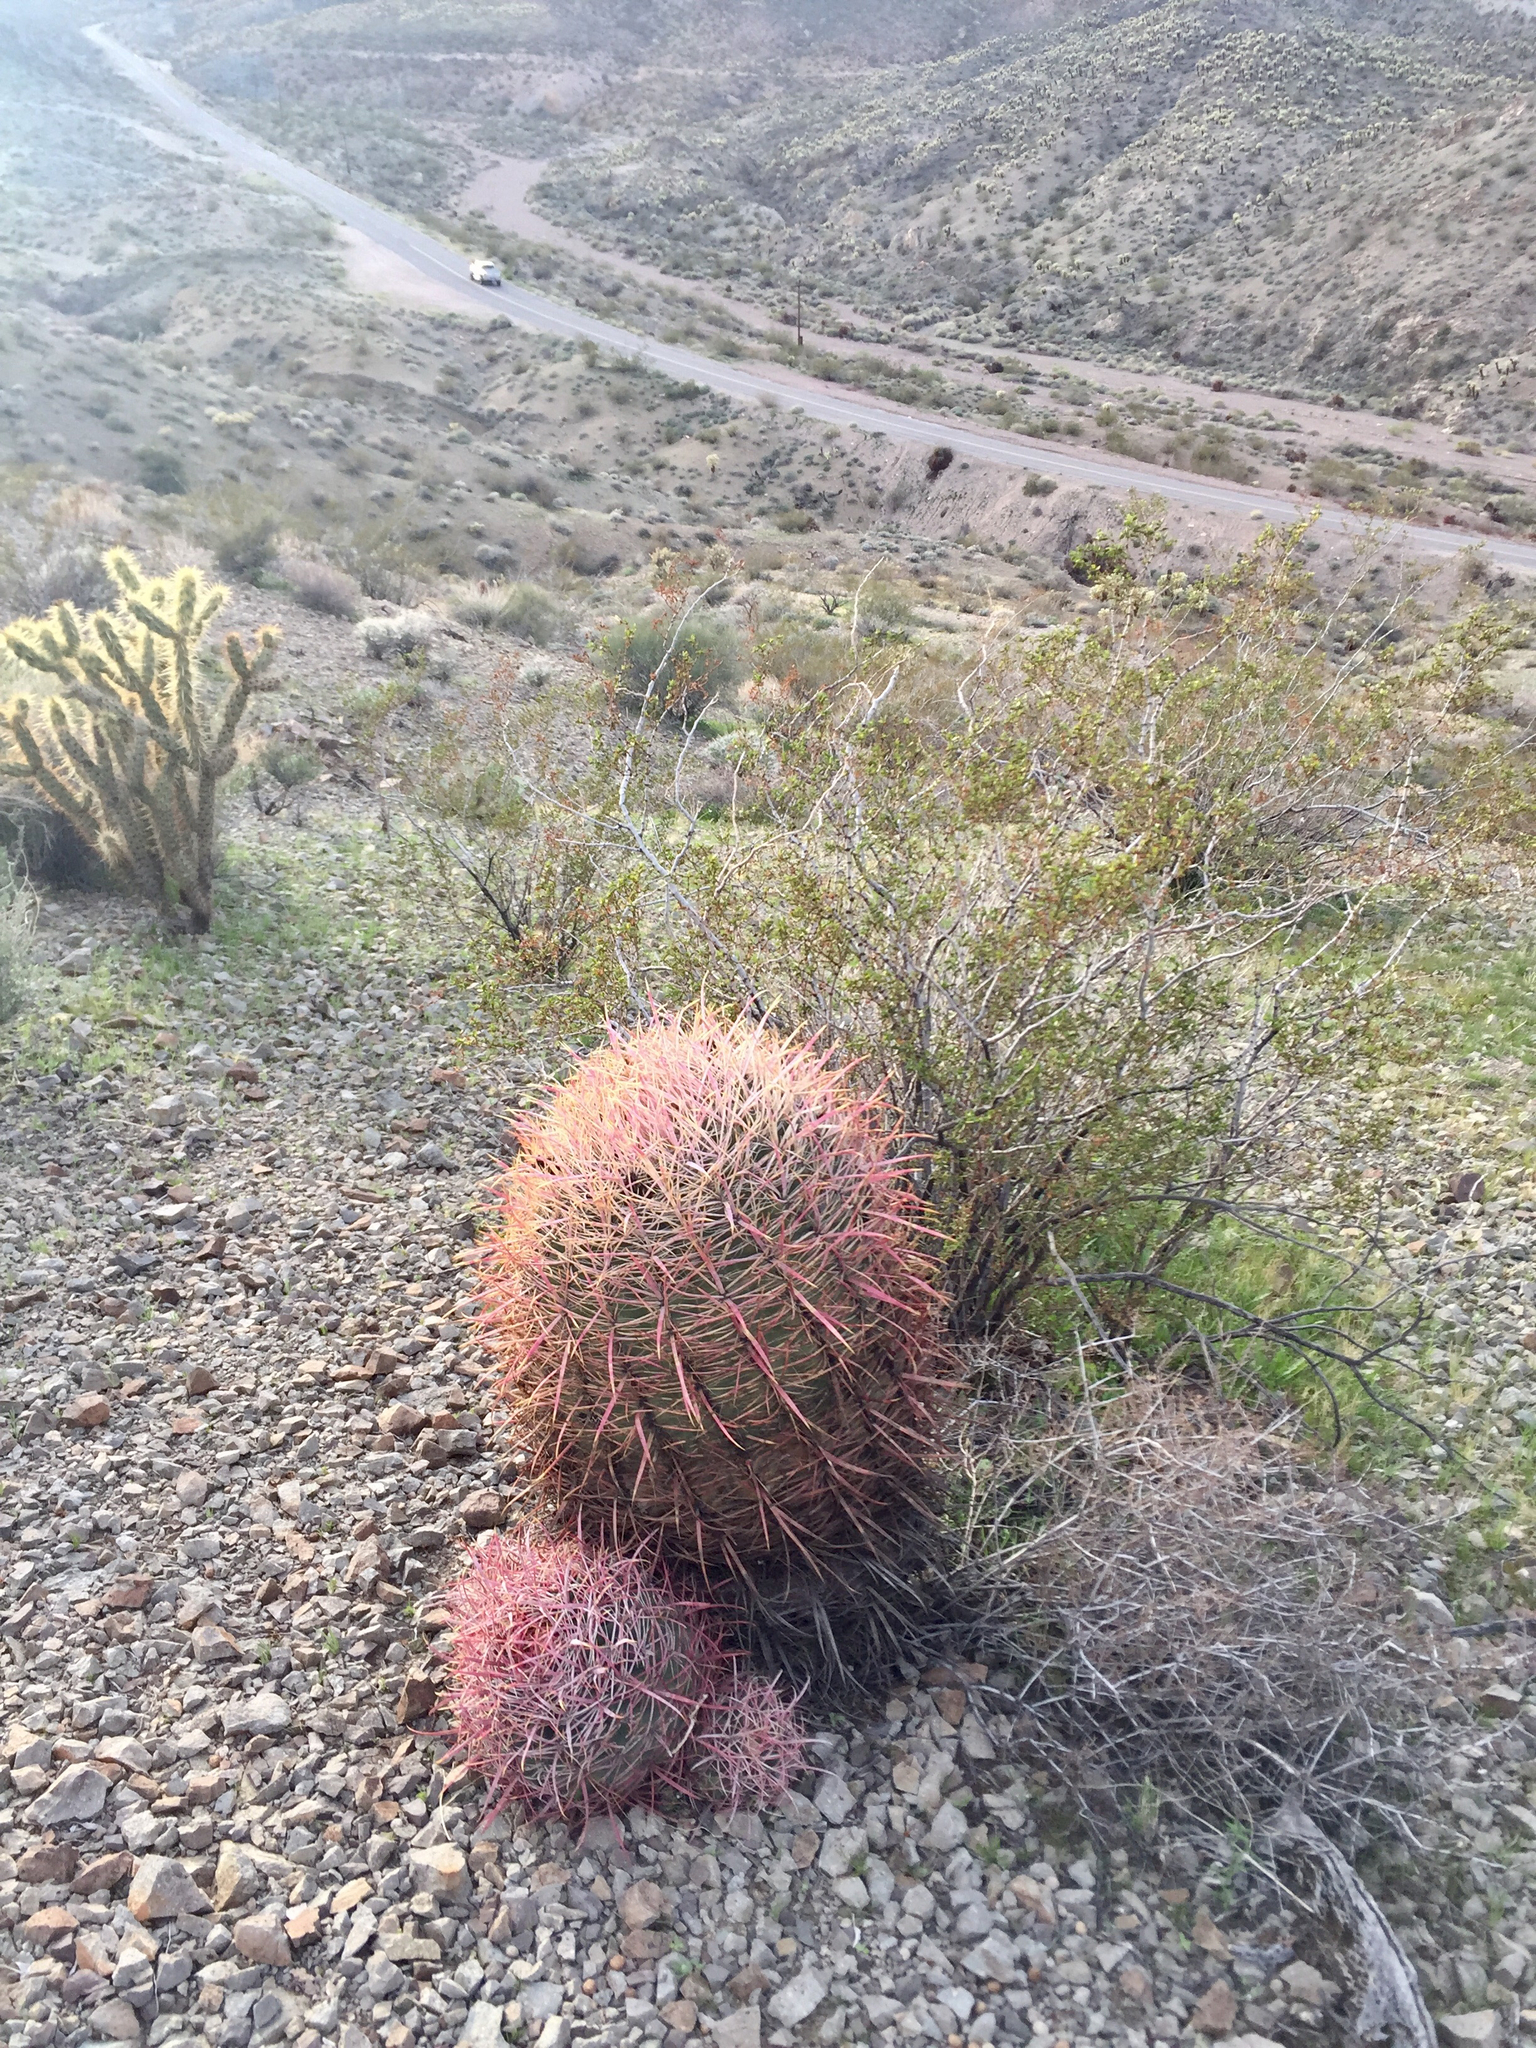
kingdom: Plantae
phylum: Tracheophyta
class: Magnoliopsida
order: Caryophyllales
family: Cactaceae
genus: Ferocactus
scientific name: Ferocactus cylindraceus
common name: California barrel cactus
